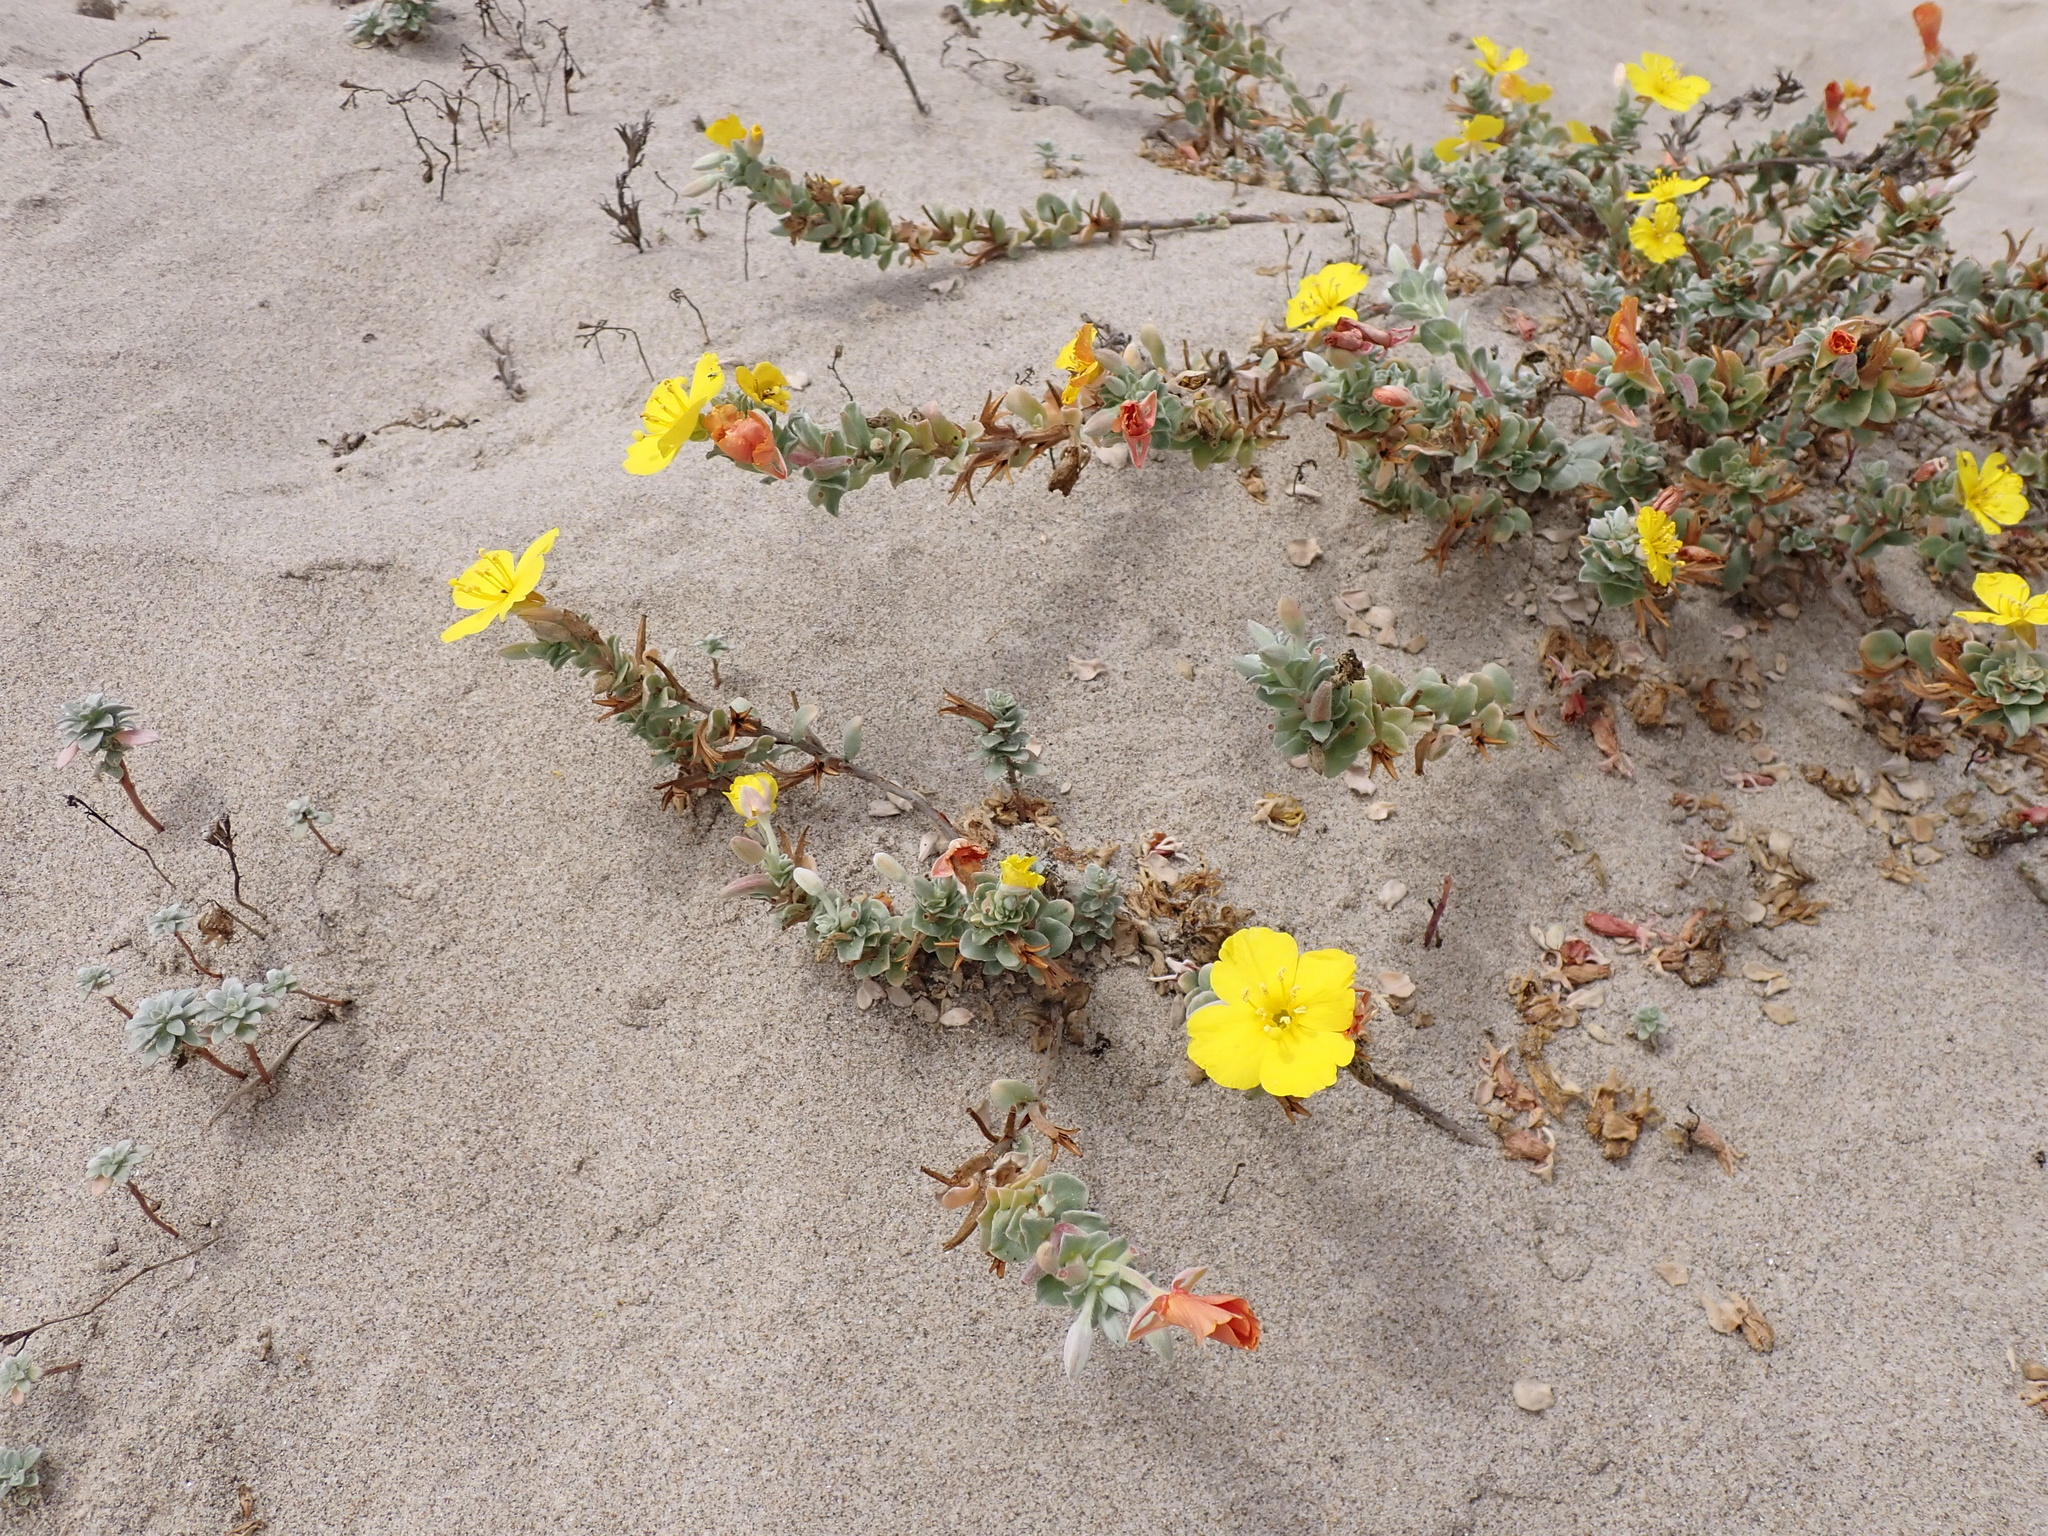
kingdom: Plantae
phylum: Tracheophyta
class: Magnoliopsida
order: Myrtales
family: Onagraceae
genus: Camissoniopsis
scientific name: Camissoniopsis cheiranthifolia
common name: Beach suncup
